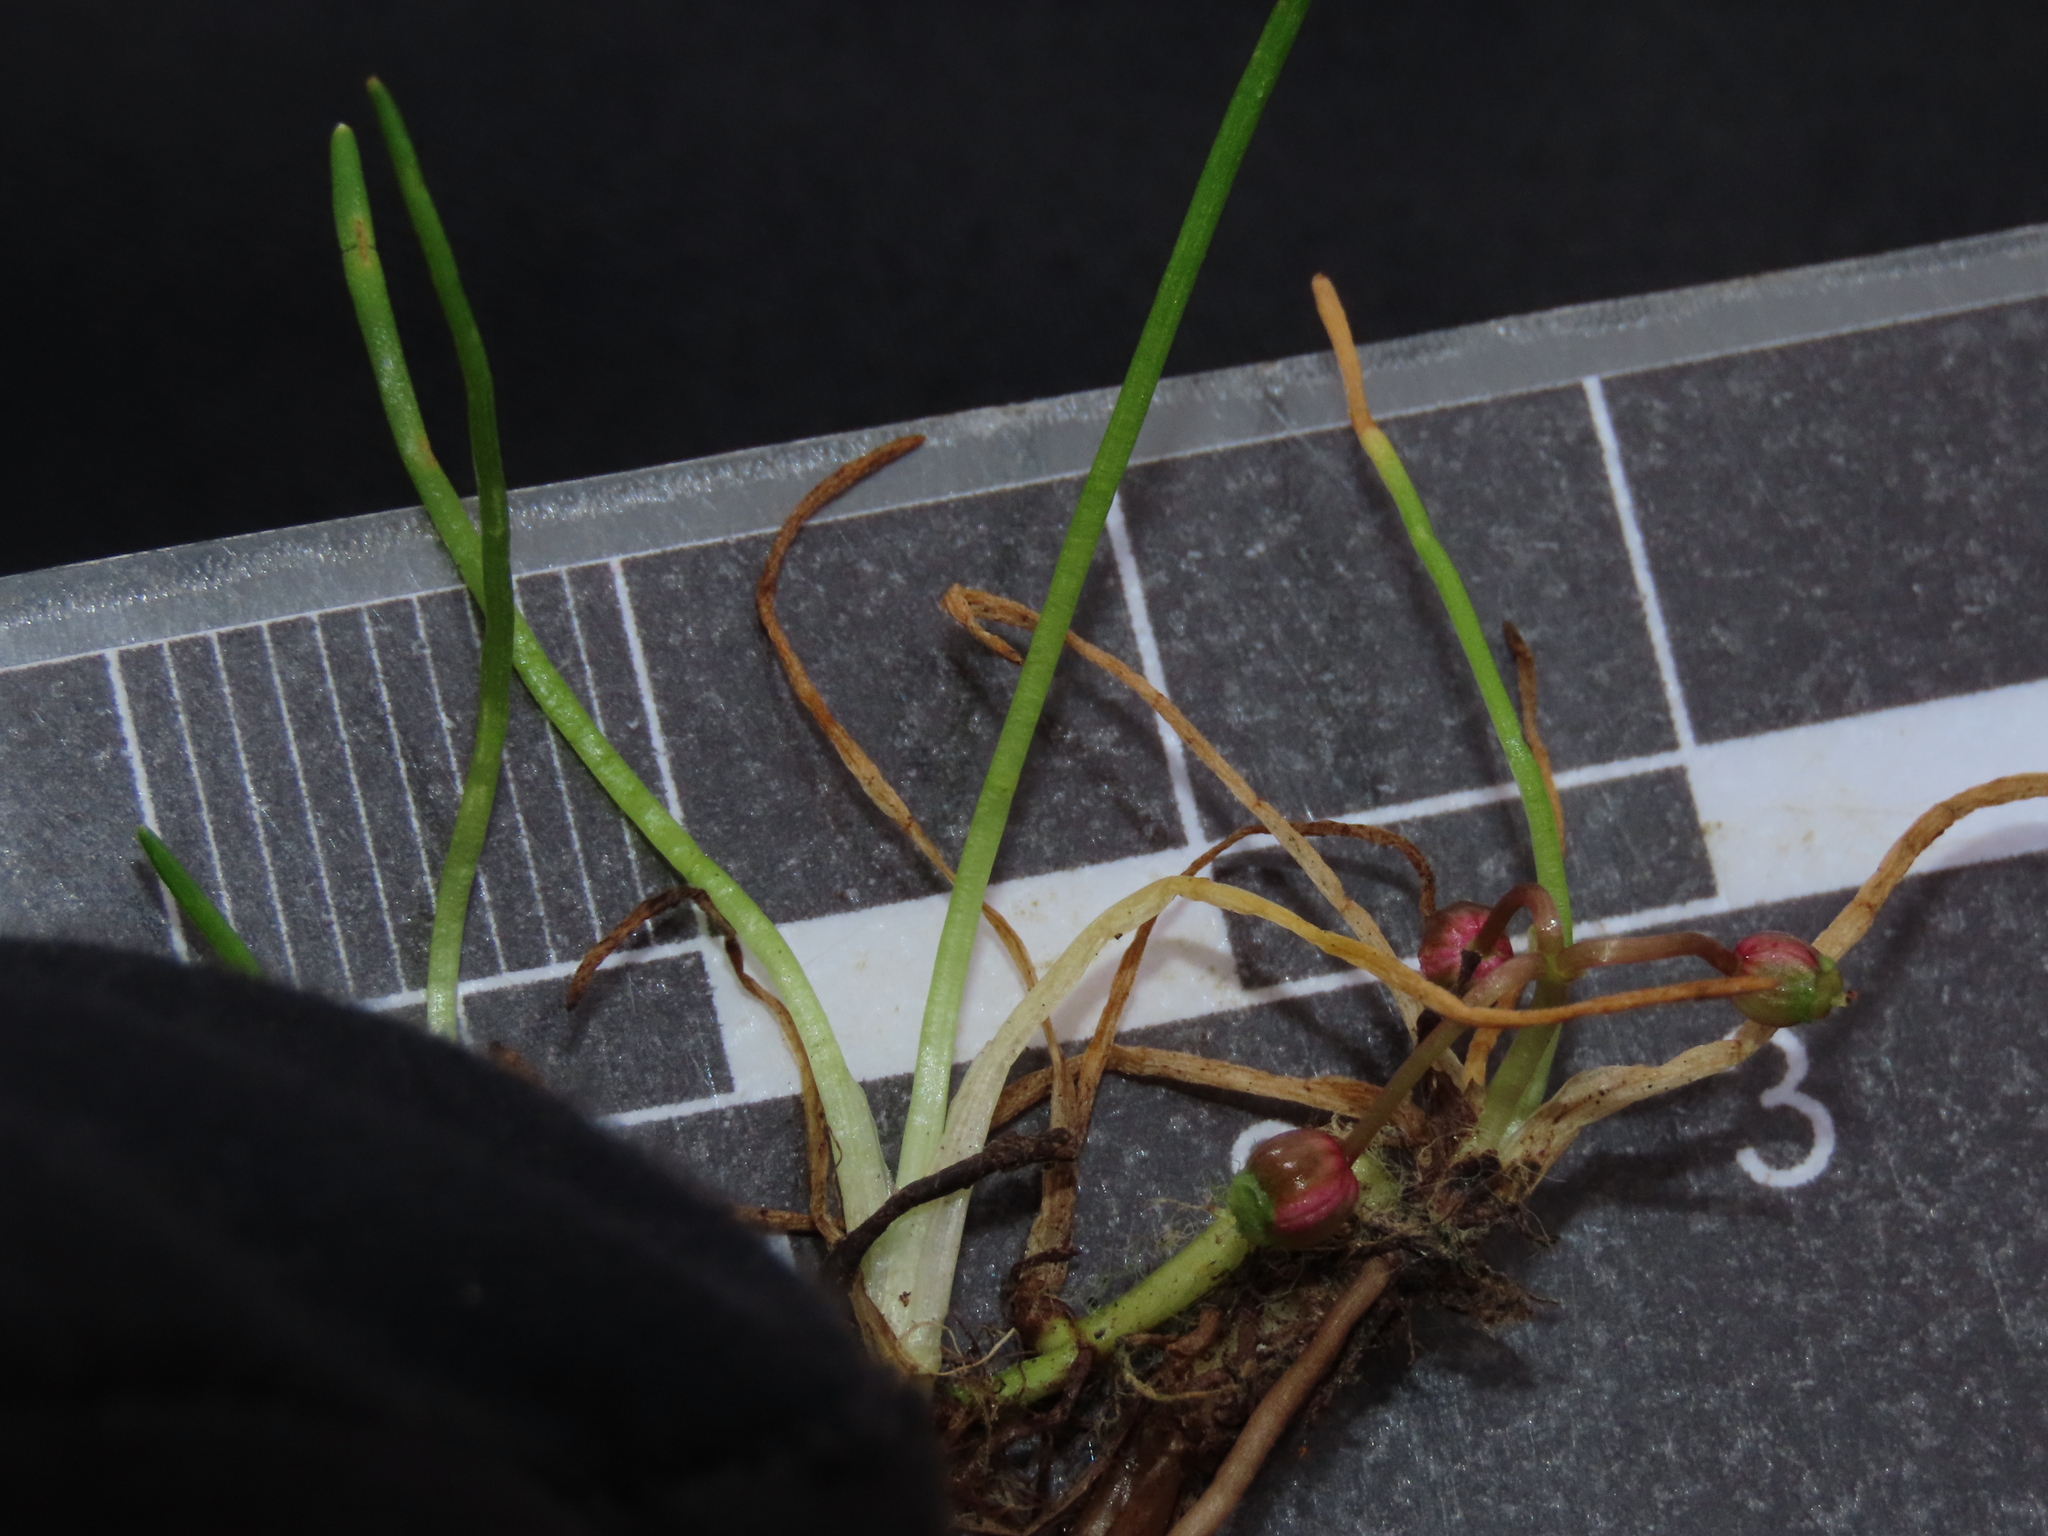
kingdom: Plantae
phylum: Tracheophyta
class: Magnoliopsida
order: Apiales
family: Apiaceae
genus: Lilaeopsis
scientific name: Lilaeopsis occidentalis
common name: Western grasswort
